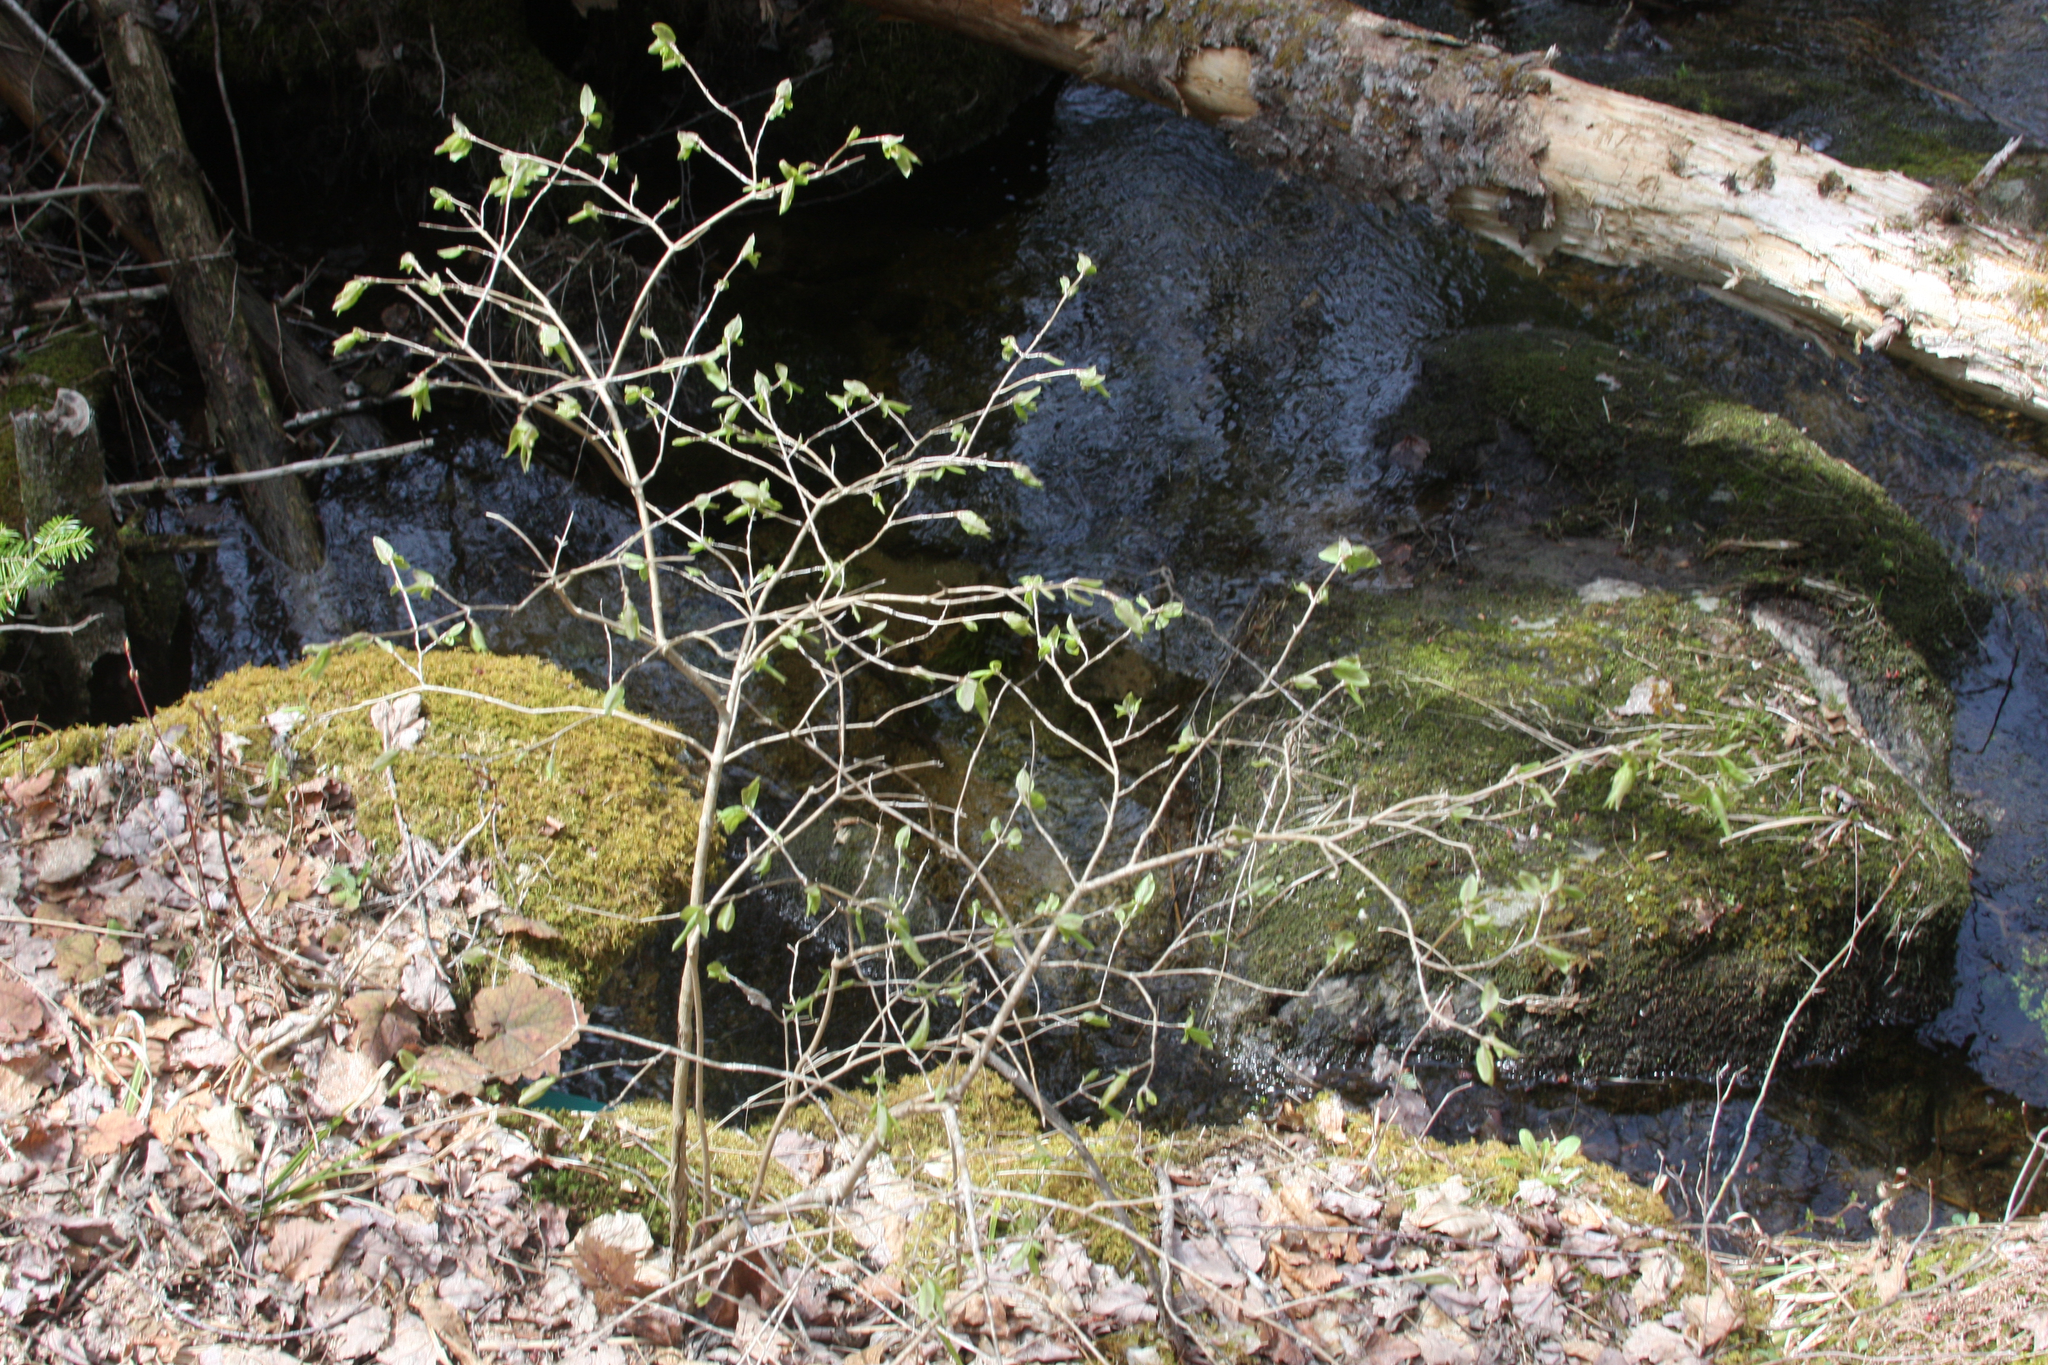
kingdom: Plantae
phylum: Tracheophyta
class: Magnoliopsida
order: Dipsacales
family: Caprifoliaceae
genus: Lonicera
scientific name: Lonicera canadensis
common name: American fly-honeysuckle
